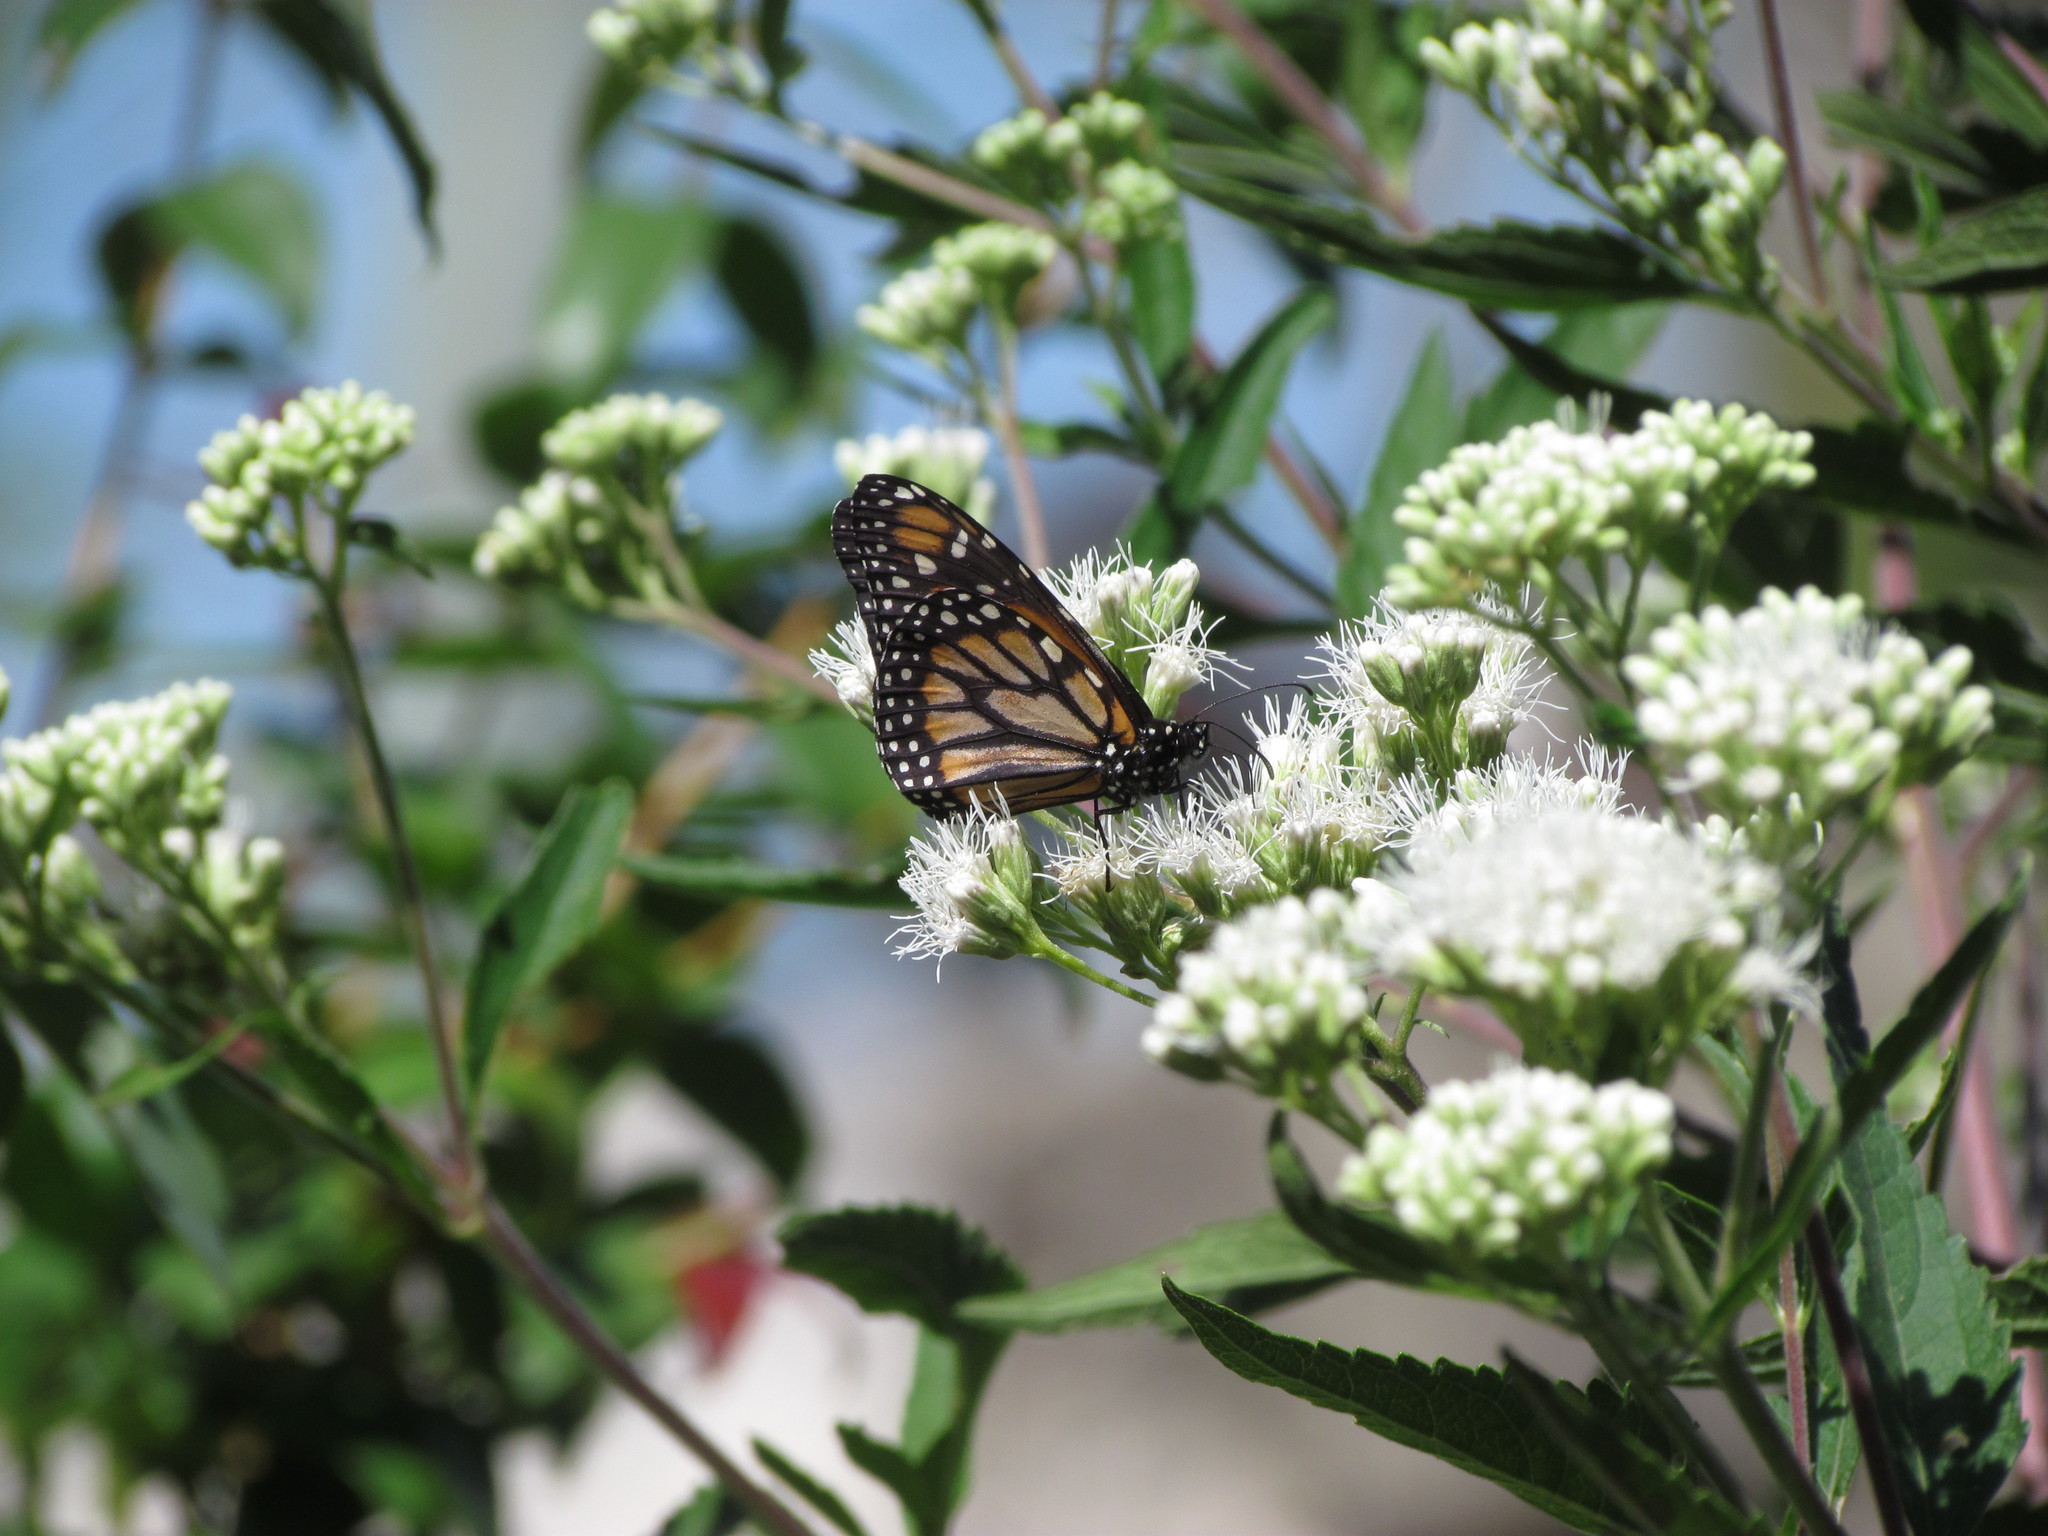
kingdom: Animalia
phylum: Arthropoda
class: Insecta
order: Lepidoptera
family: Nymphalidae
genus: Danaus
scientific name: Danaus erippus
